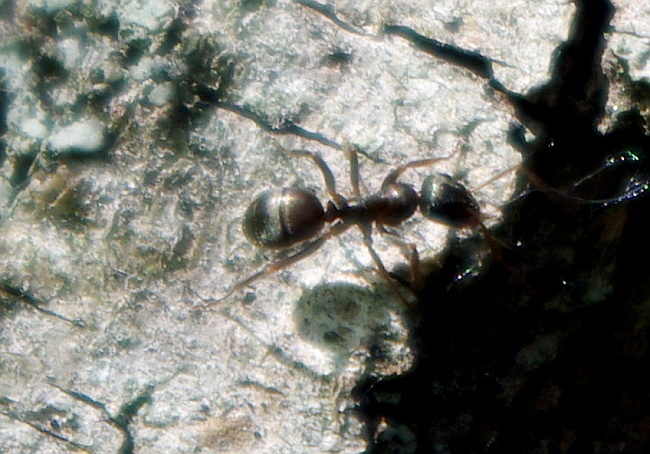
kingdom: Animalia
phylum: Arthropoda
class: Insecta
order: Hymenoptera
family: Formicidae
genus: Formica
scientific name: Formica fusca
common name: Silky ant
